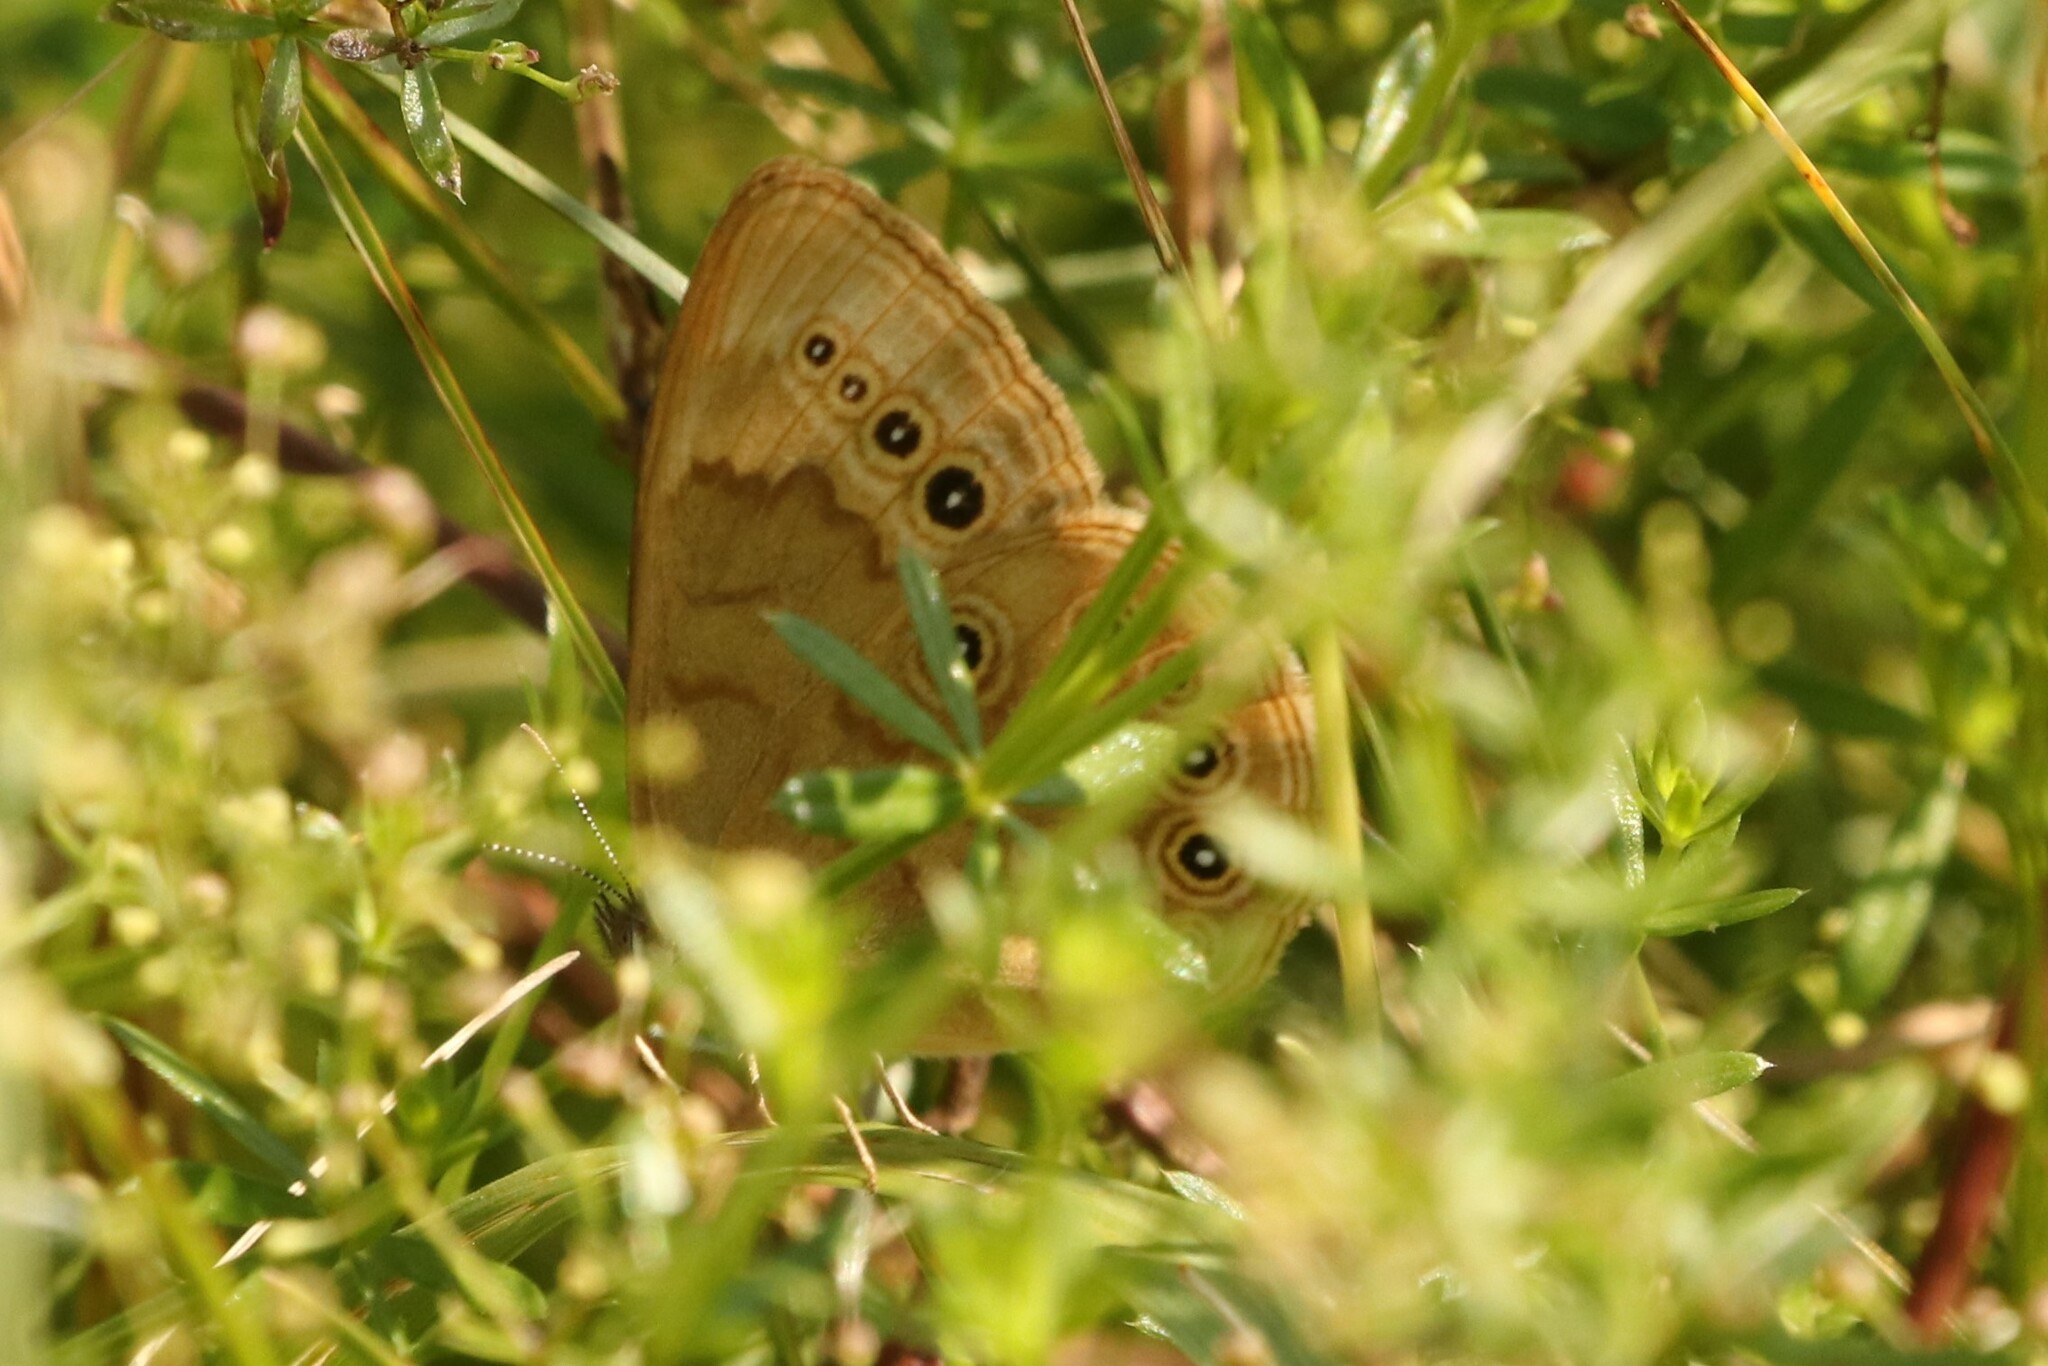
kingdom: Animalia
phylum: Arthropoda
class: Insecta
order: Lepidoptera
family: Nymphalidae
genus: Lethe
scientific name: Lethe eurydice
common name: Eyed brown
